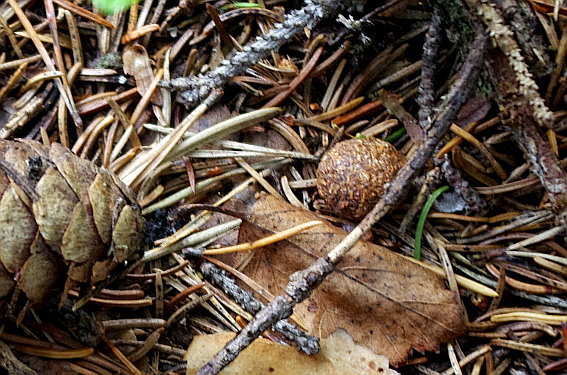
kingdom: Animalia
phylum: Chordata
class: Mammalia
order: Lagomorpha
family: Leporidae
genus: Lepus
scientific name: Lepus timidus
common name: Mountain hare
